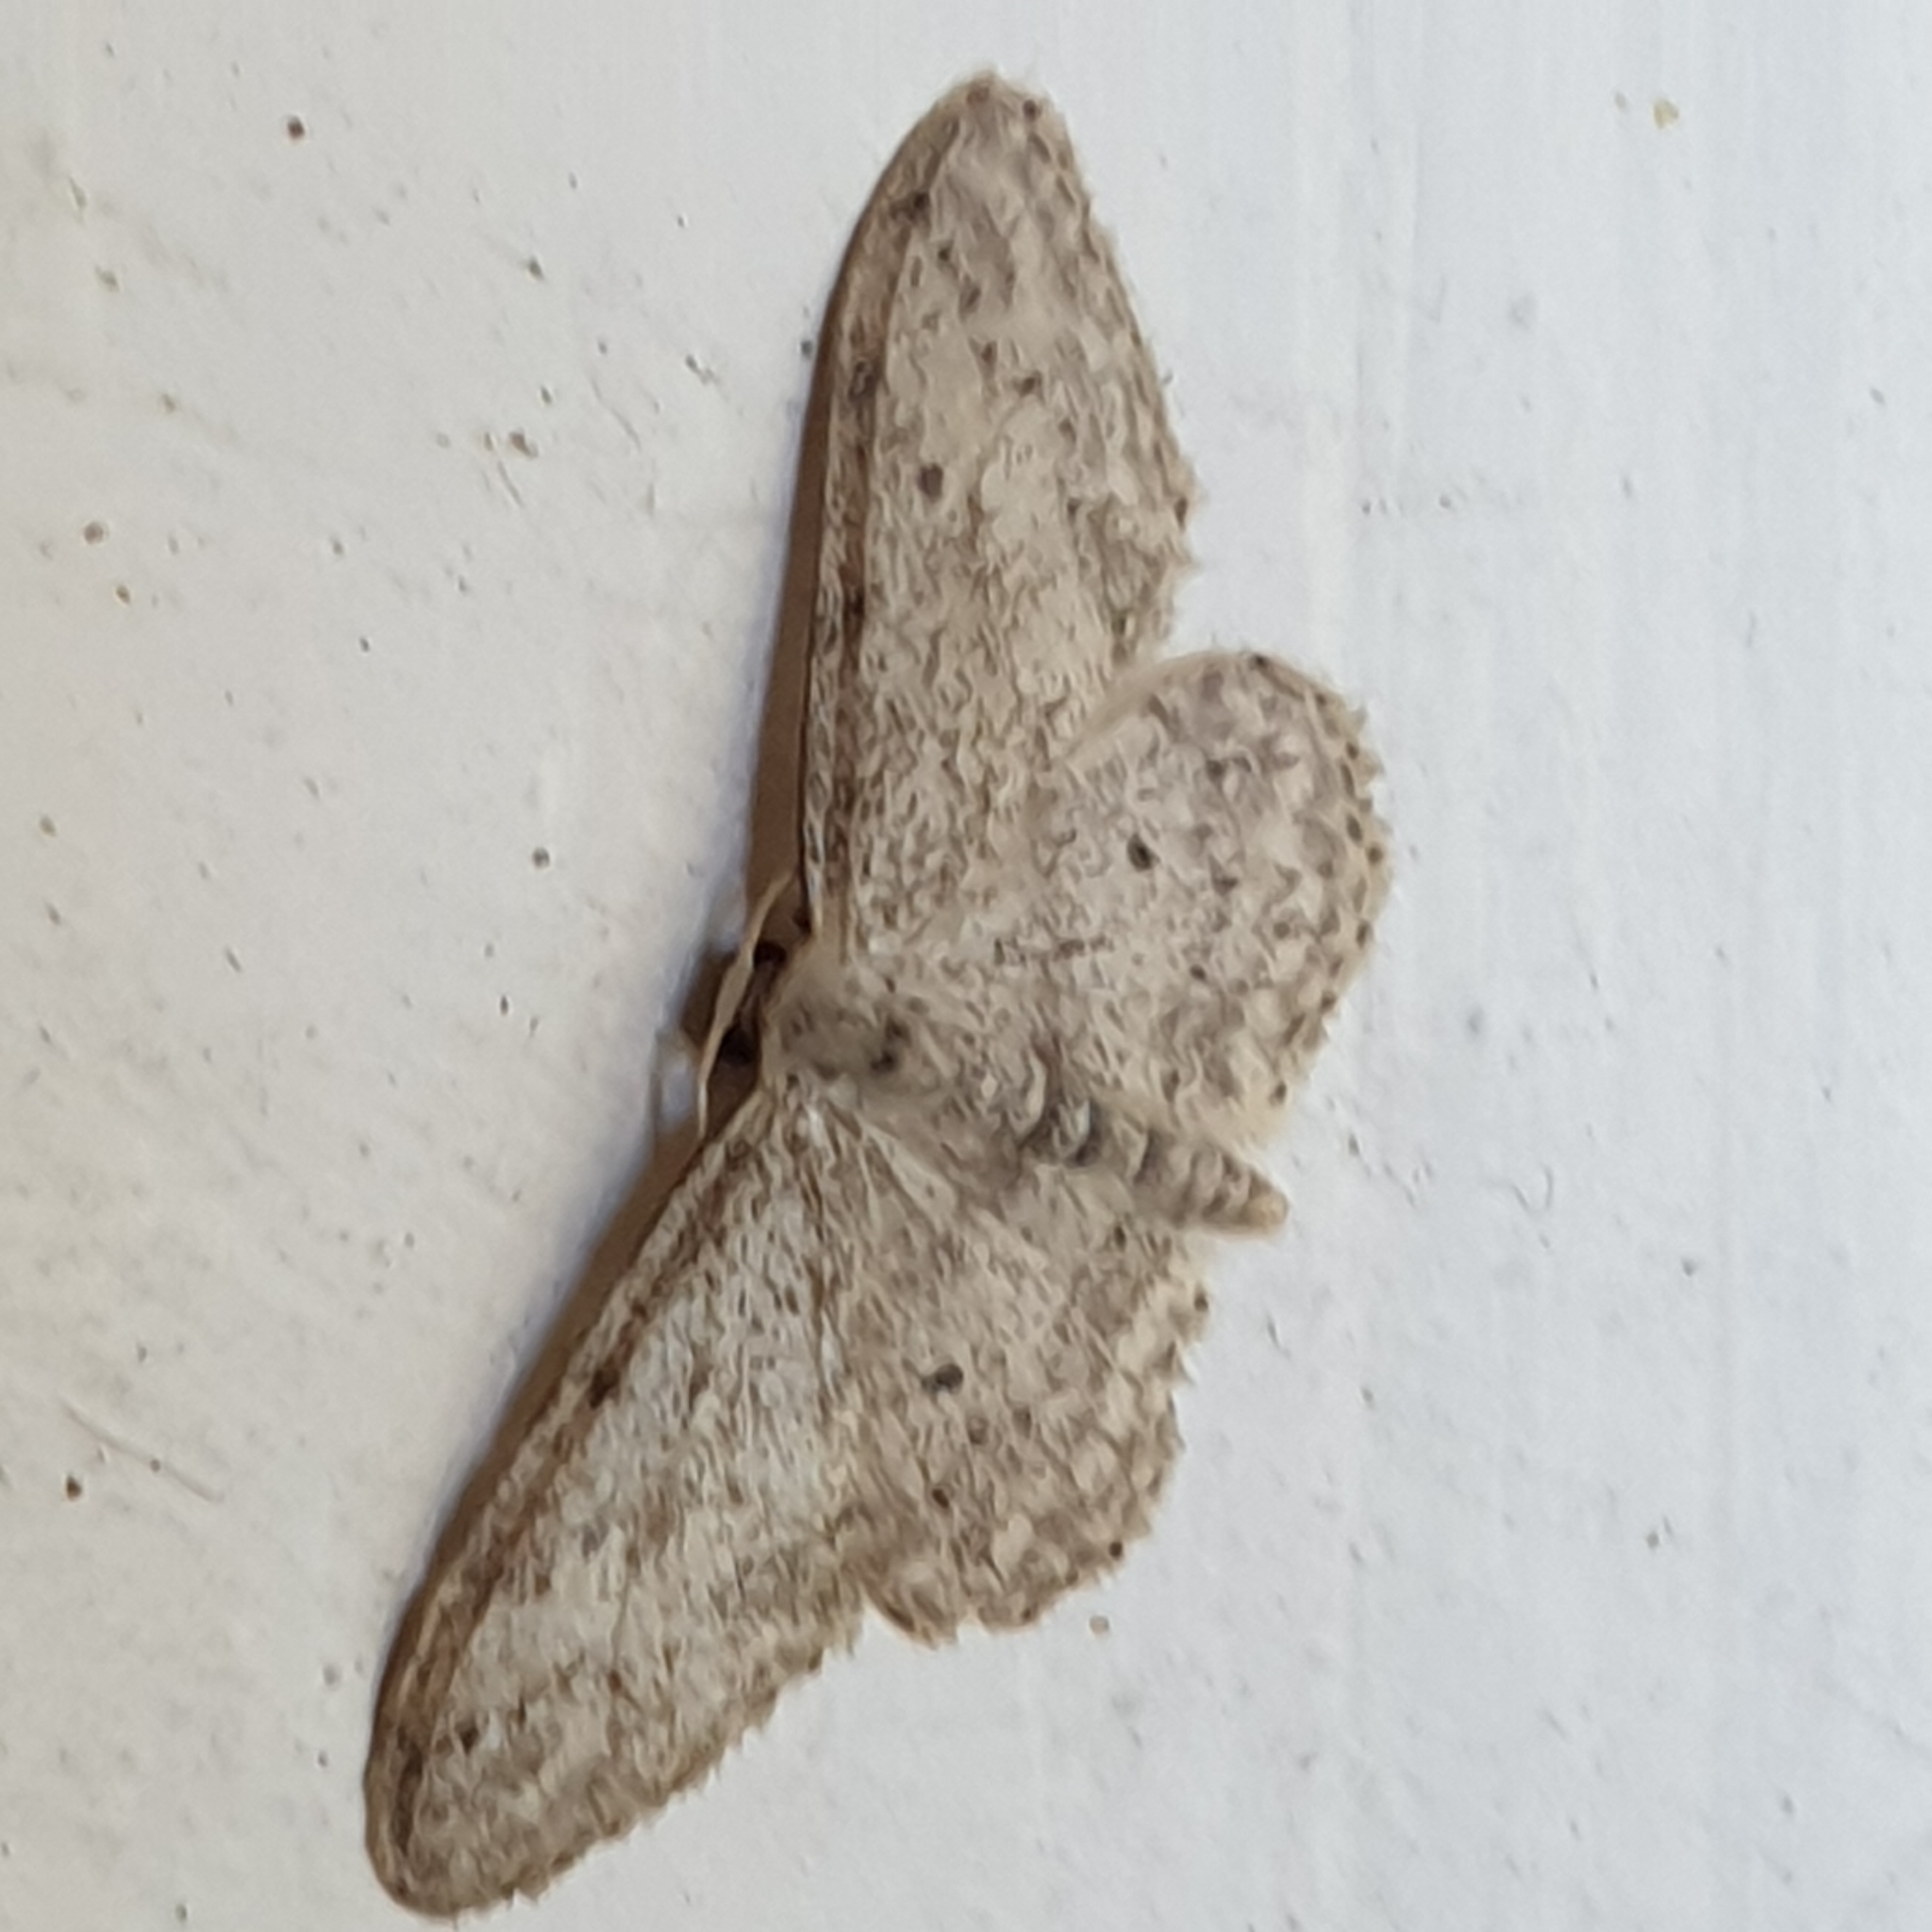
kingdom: Animalia
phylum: Arthropoda
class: Insecta
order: Lepidoptera
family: Geometridae
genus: Idaea
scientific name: Idaea seriata
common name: Small dusty wave
